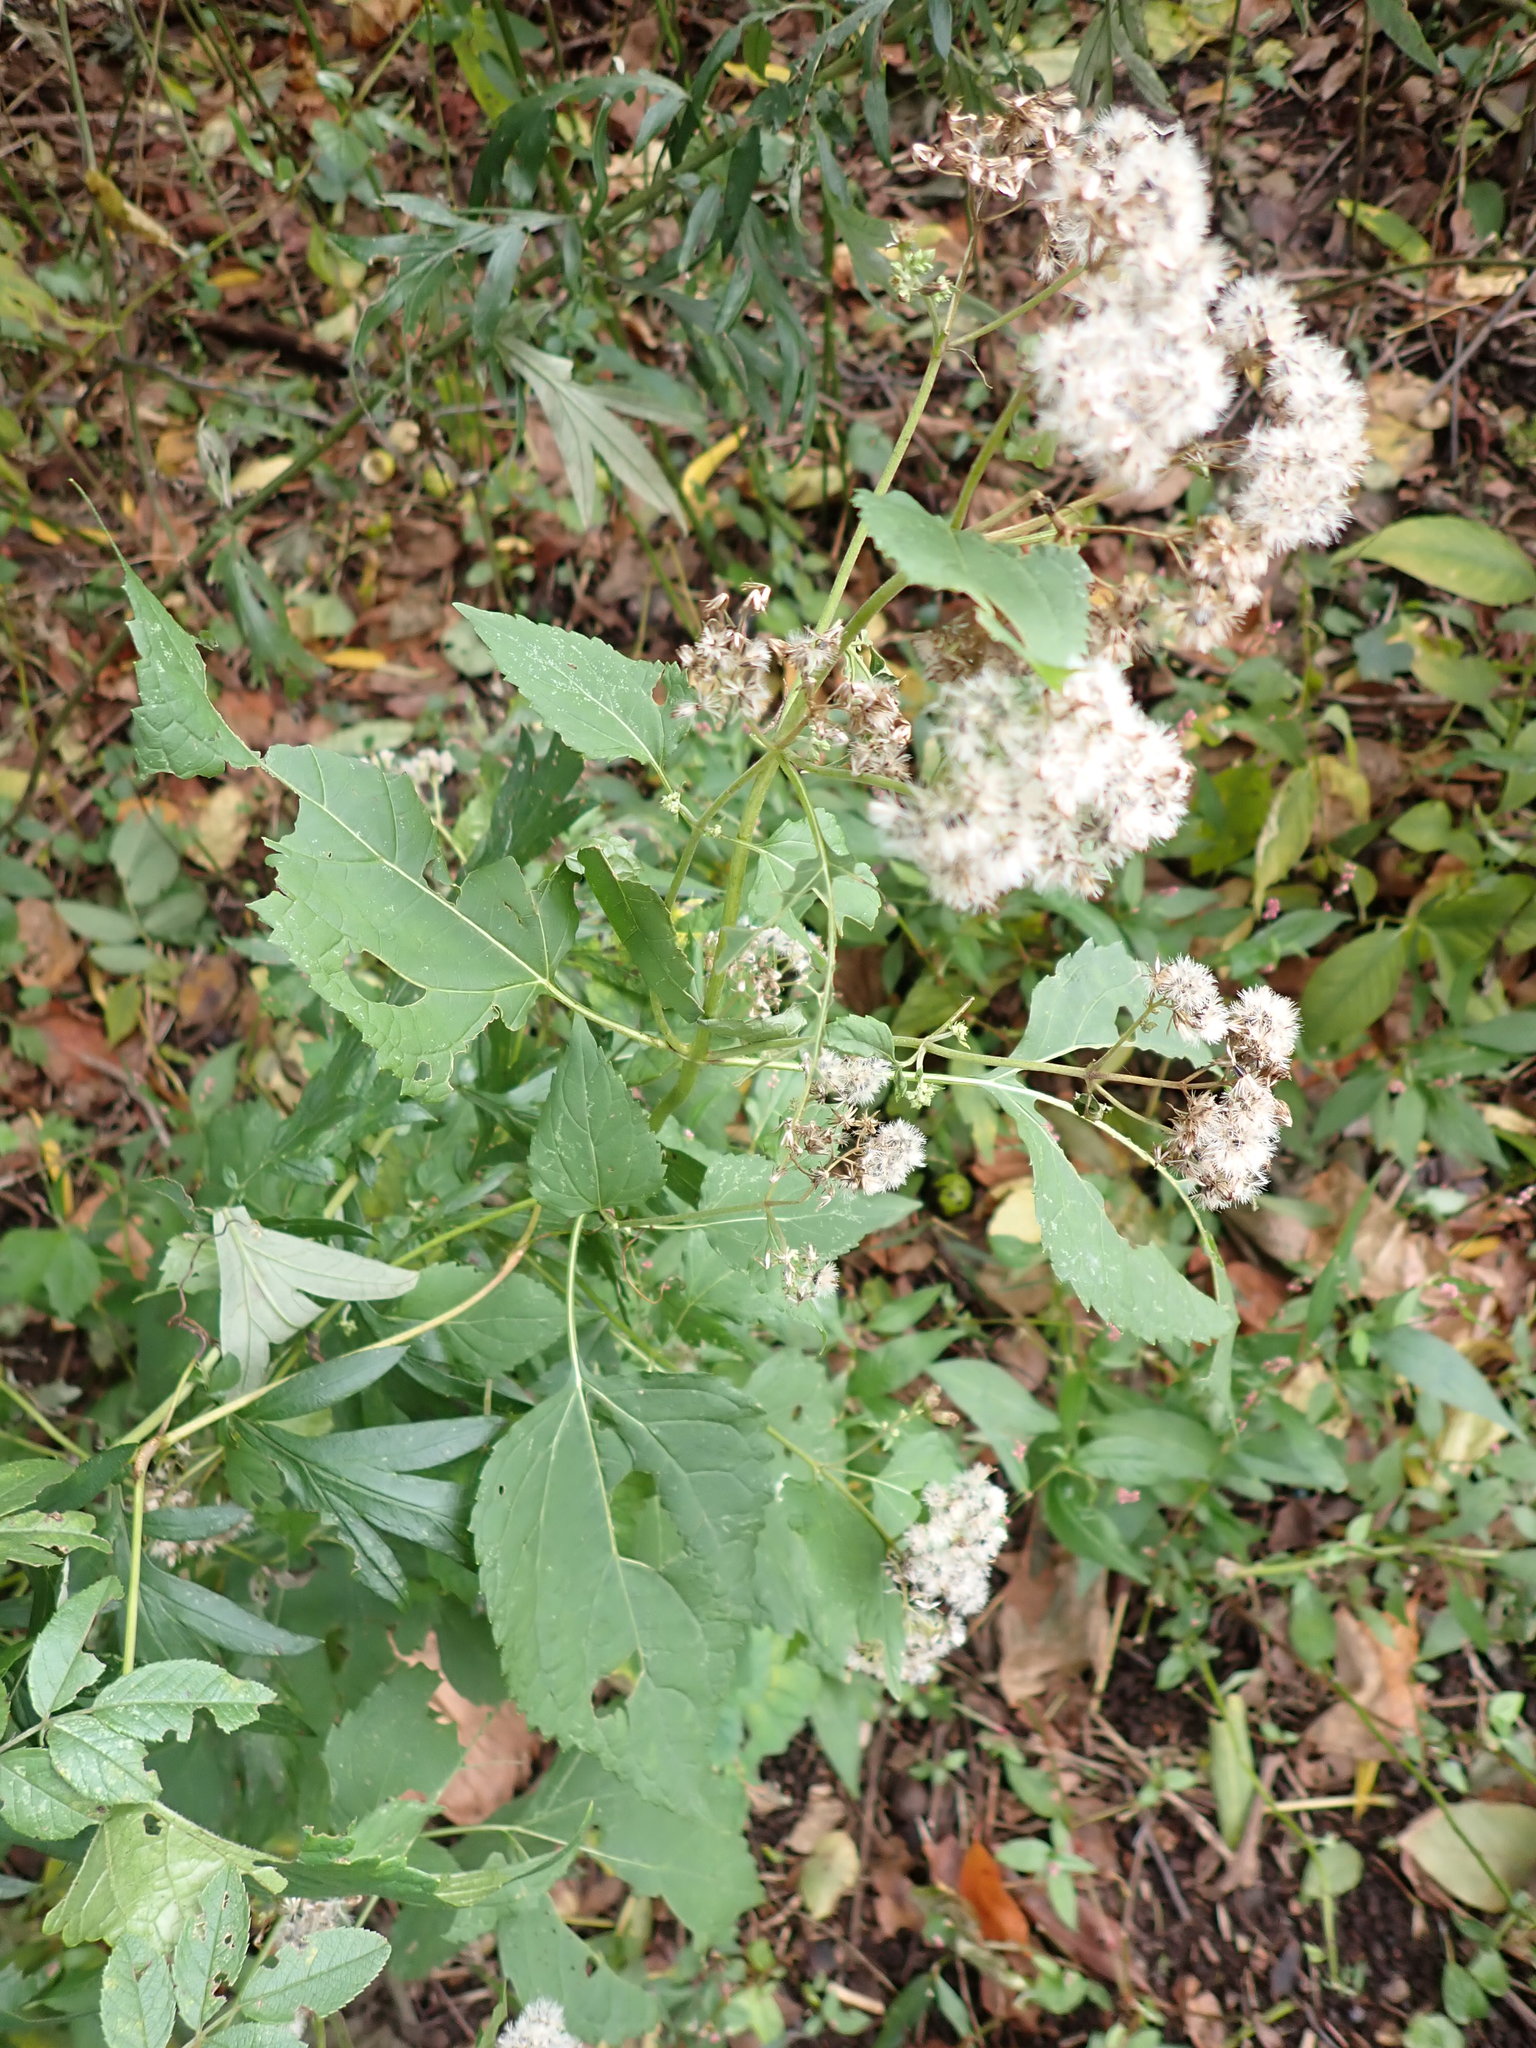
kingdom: Plantae
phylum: Tracheophyta
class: Magnoliopsida
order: Asterales
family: Asteraceae
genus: Ageratina
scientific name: Ageratina altissima
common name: White snakeroot
